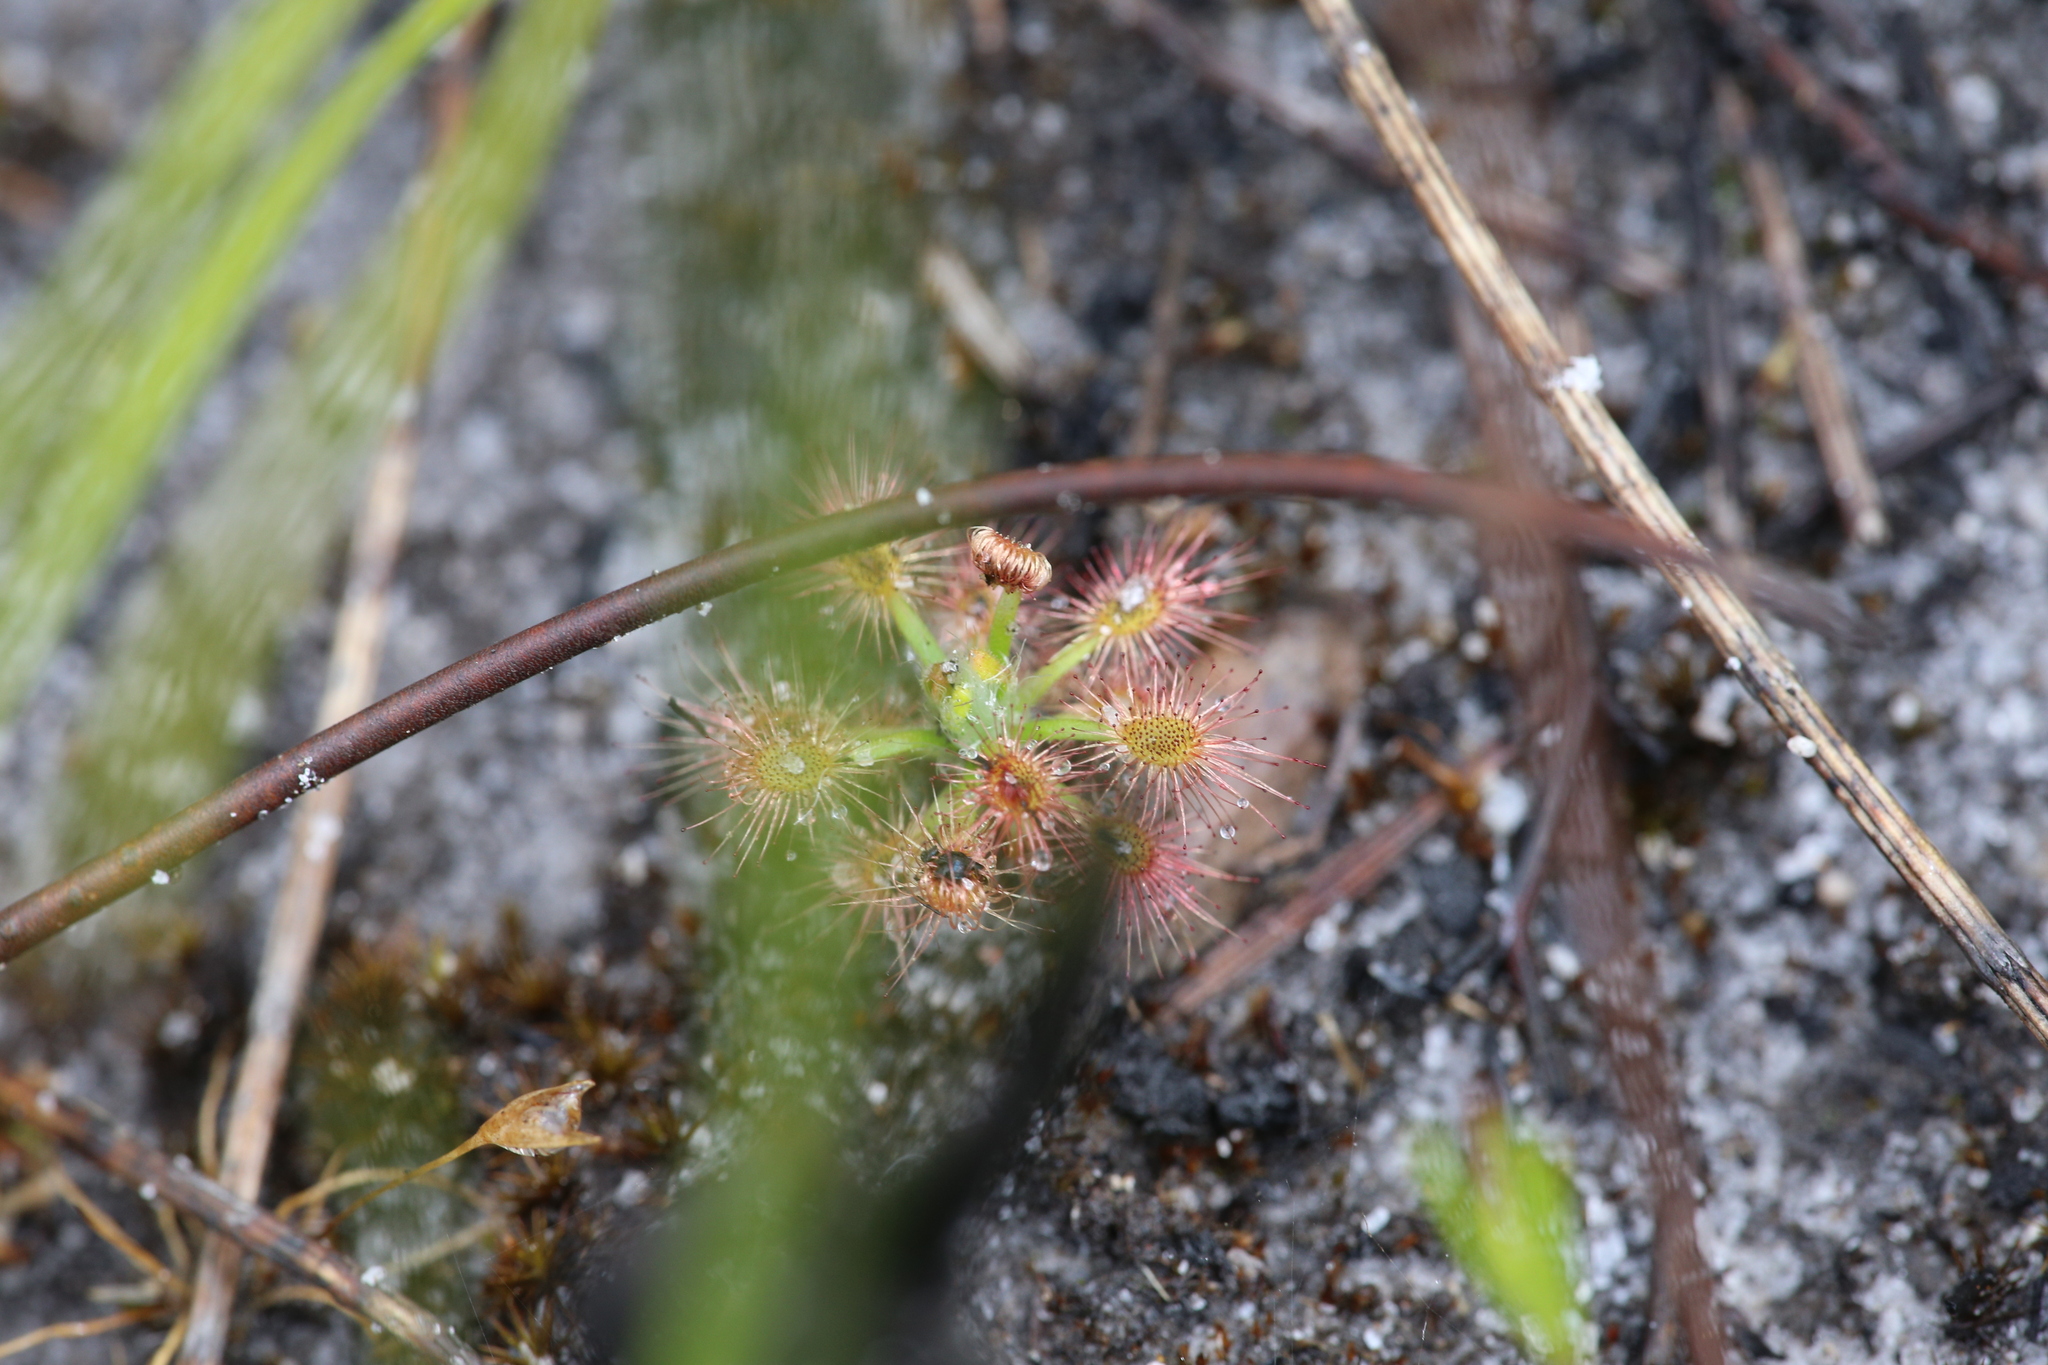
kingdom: Plantae
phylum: Tracheophyta
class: Magnoliopsida
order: Caryophyllales
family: Droseraceae
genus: Drosera
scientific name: Drosera paleacea
